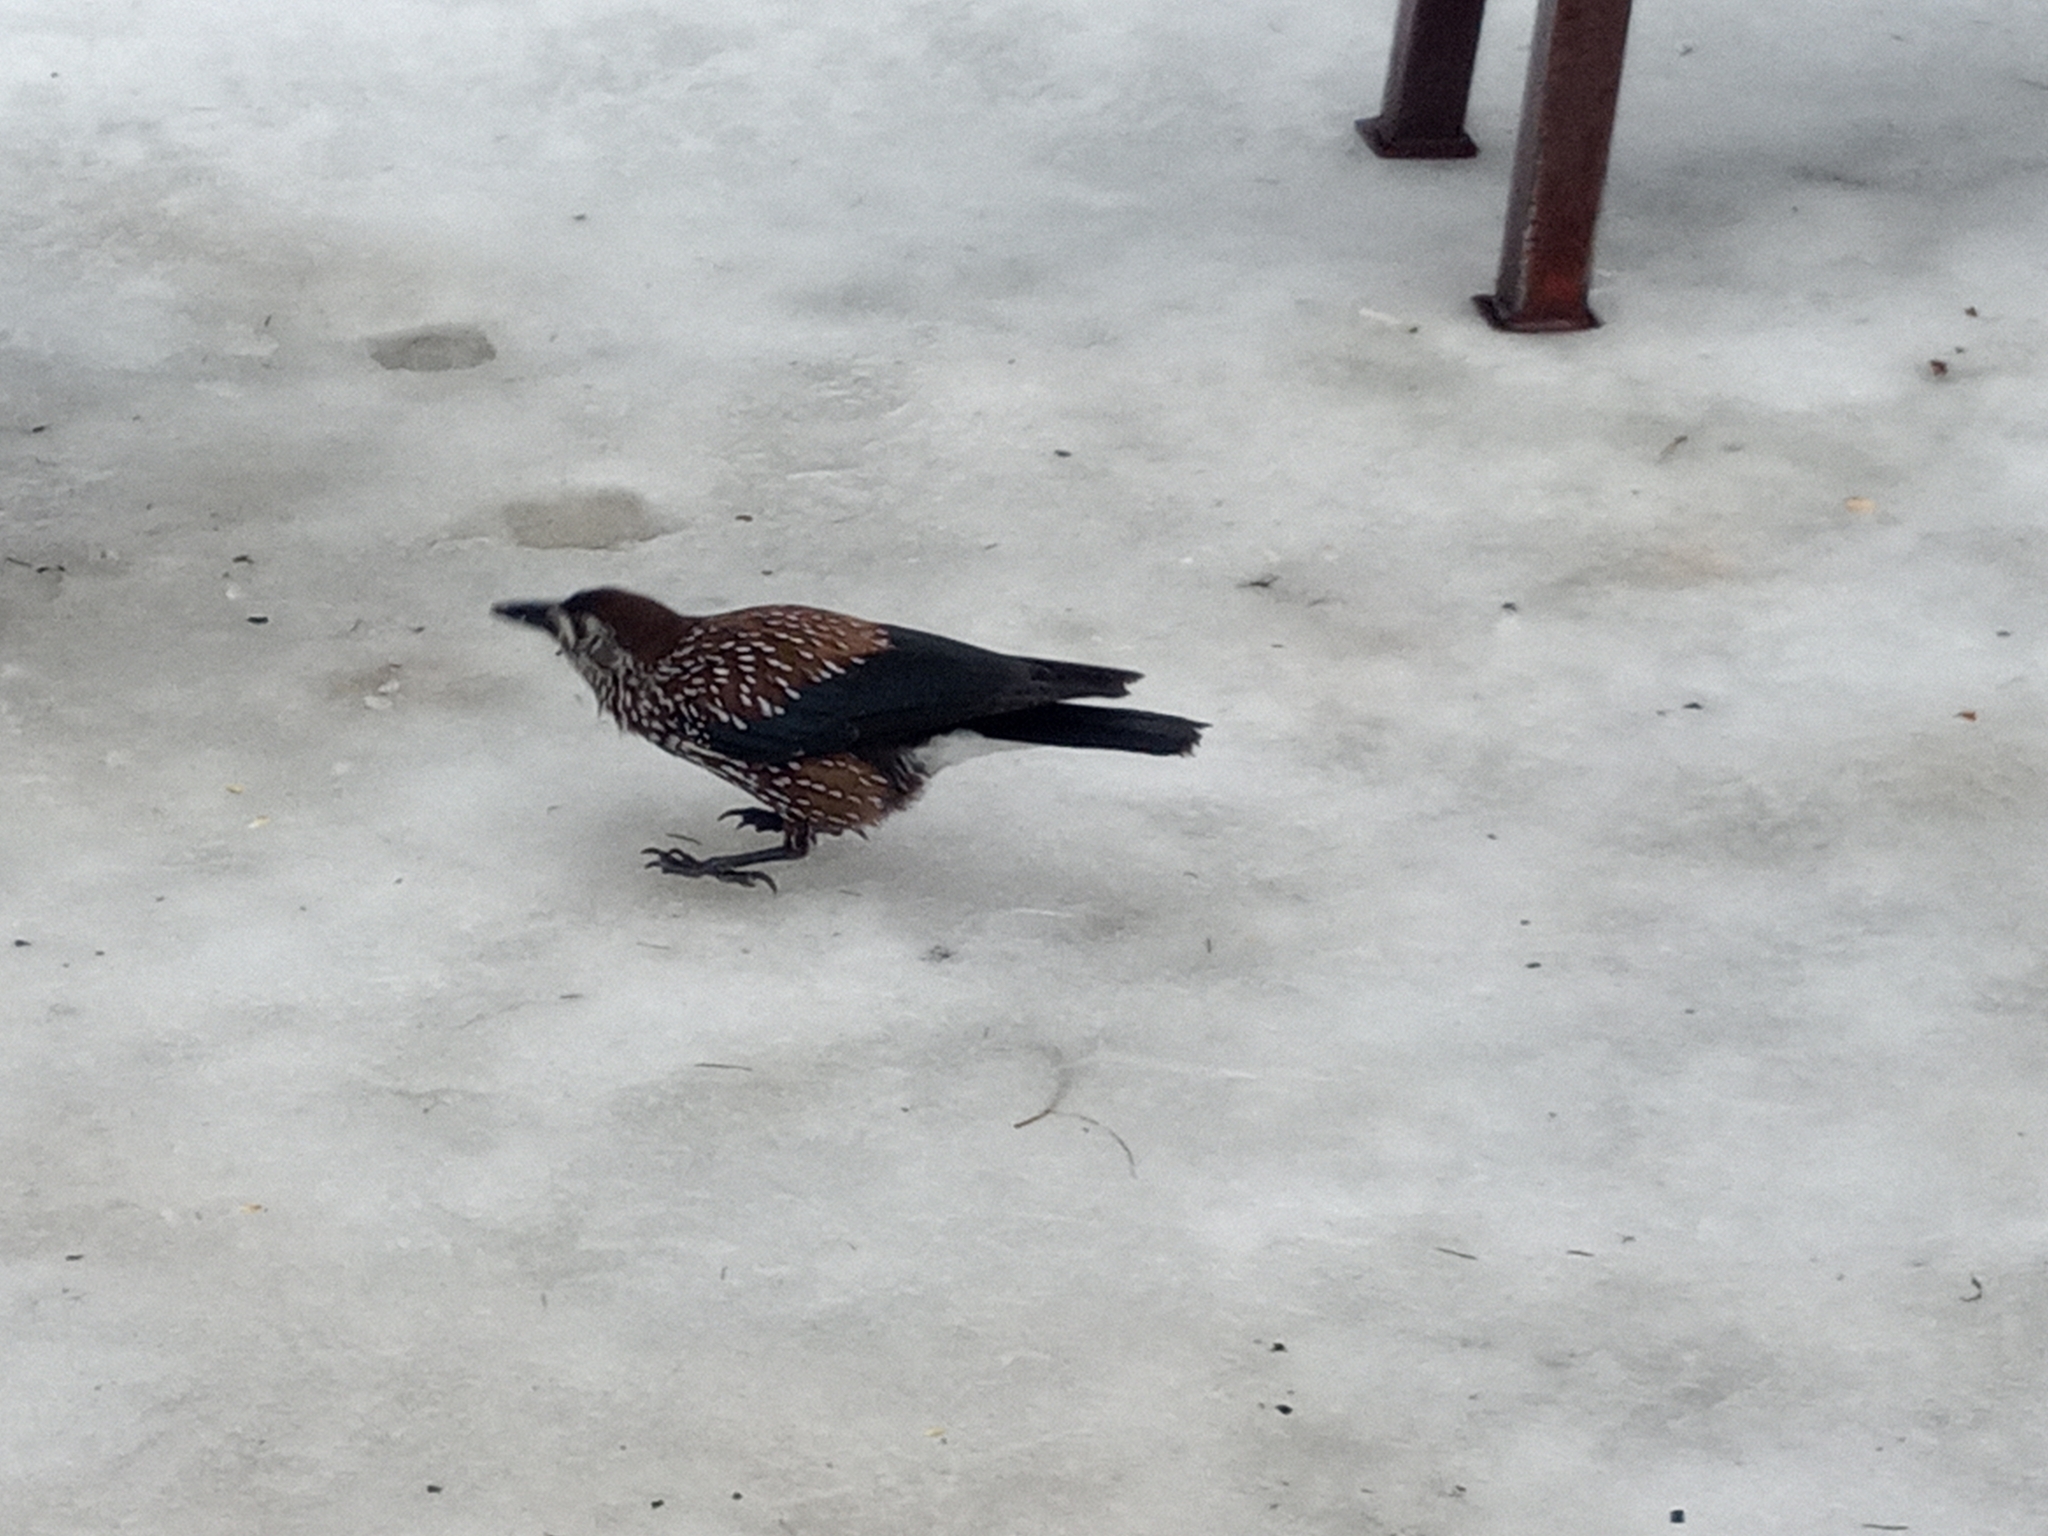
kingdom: Animalia
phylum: Chordata
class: Aves
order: Passeriformes
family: Corvidae
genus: Nucifraga
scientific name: Nucifraga caryocatactes
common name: Spotted nutcracker
